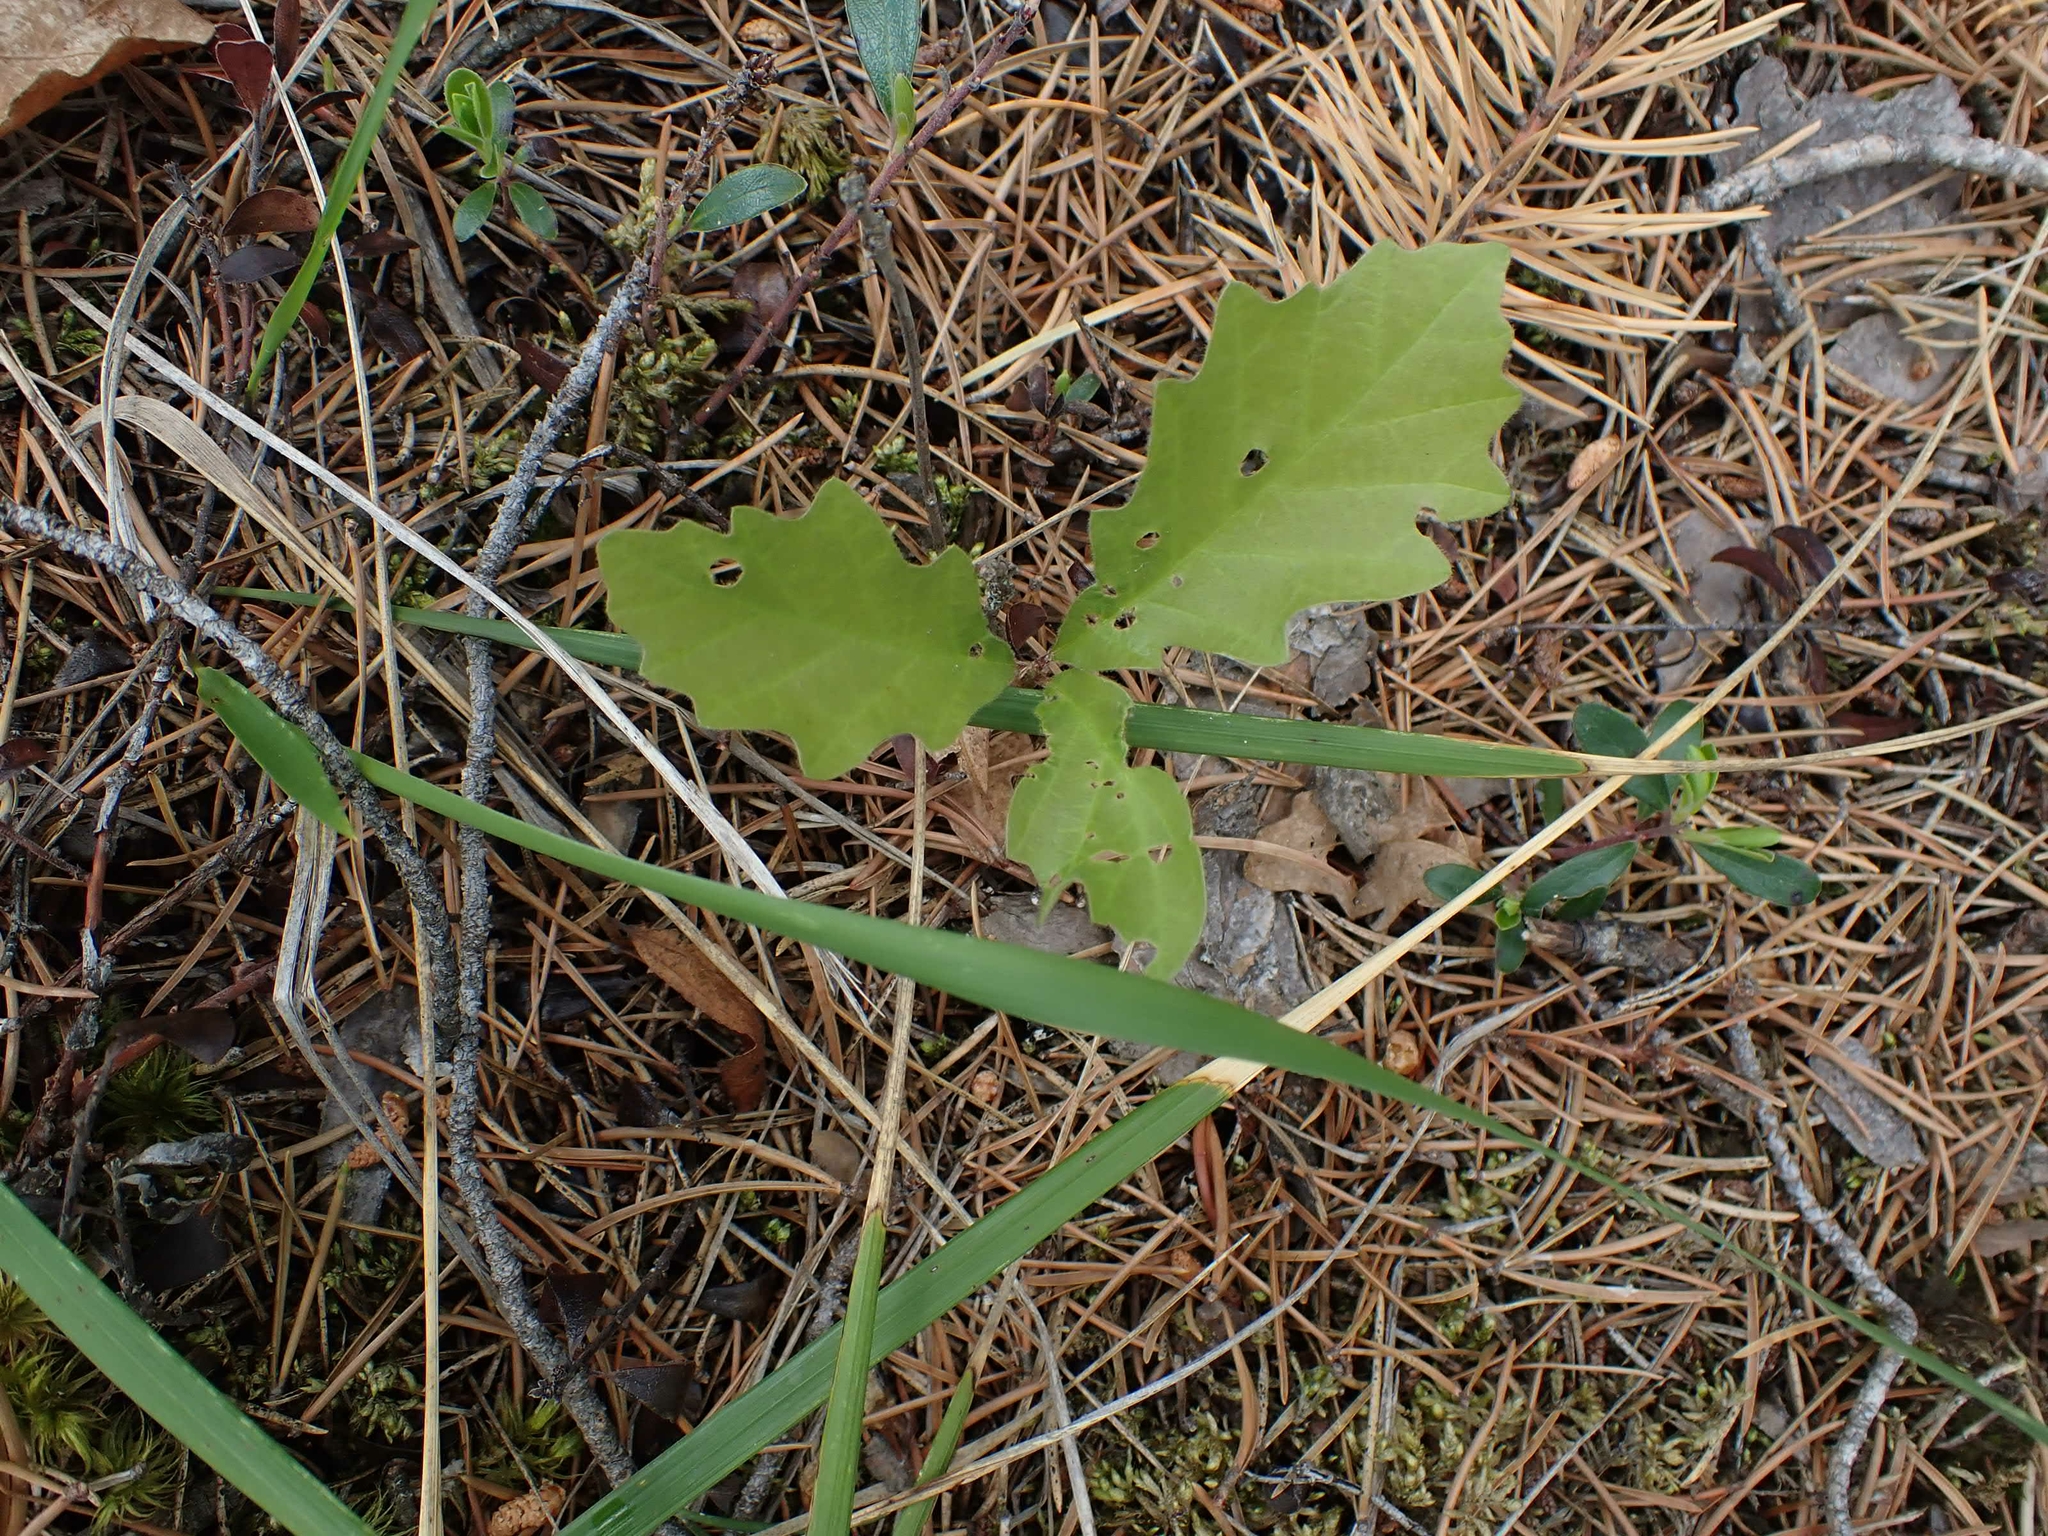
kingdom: Plantae
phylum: Tracheophyta
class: Magnoliopsida
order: Fagales
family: Fagaceae
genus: Quercus
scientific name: Quercus macrocarpa
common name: Bur oak
